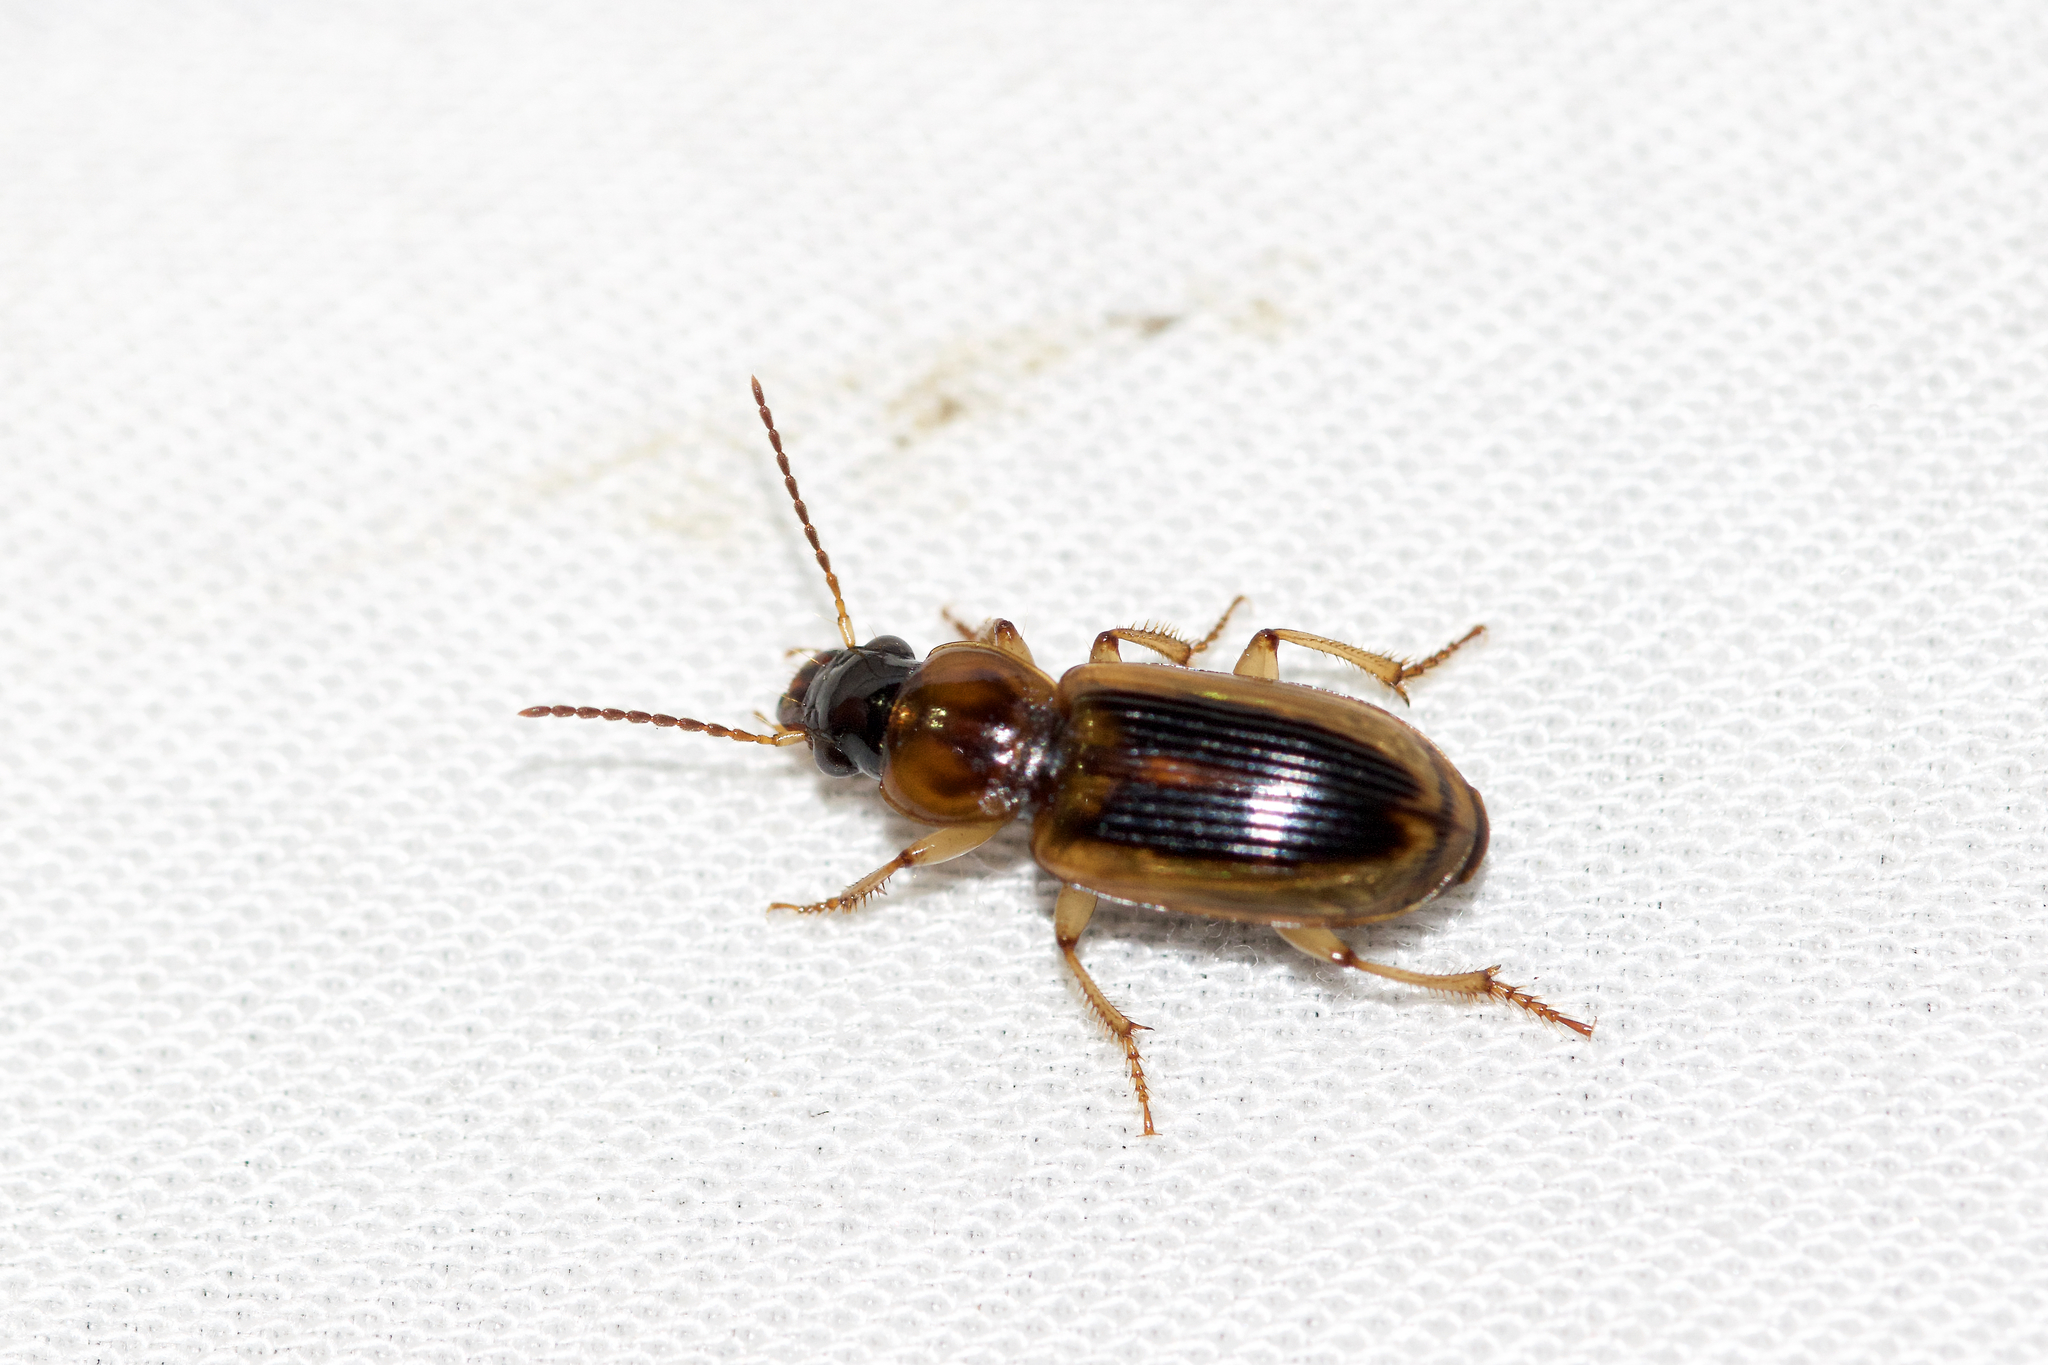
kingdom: Animalia
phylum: Arthropoda
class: Insecta
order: Coleoptera
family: Carabidae
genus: Stenolophus
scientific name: Stenolophus lecontei
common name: Leconte's seedcorn beetle
